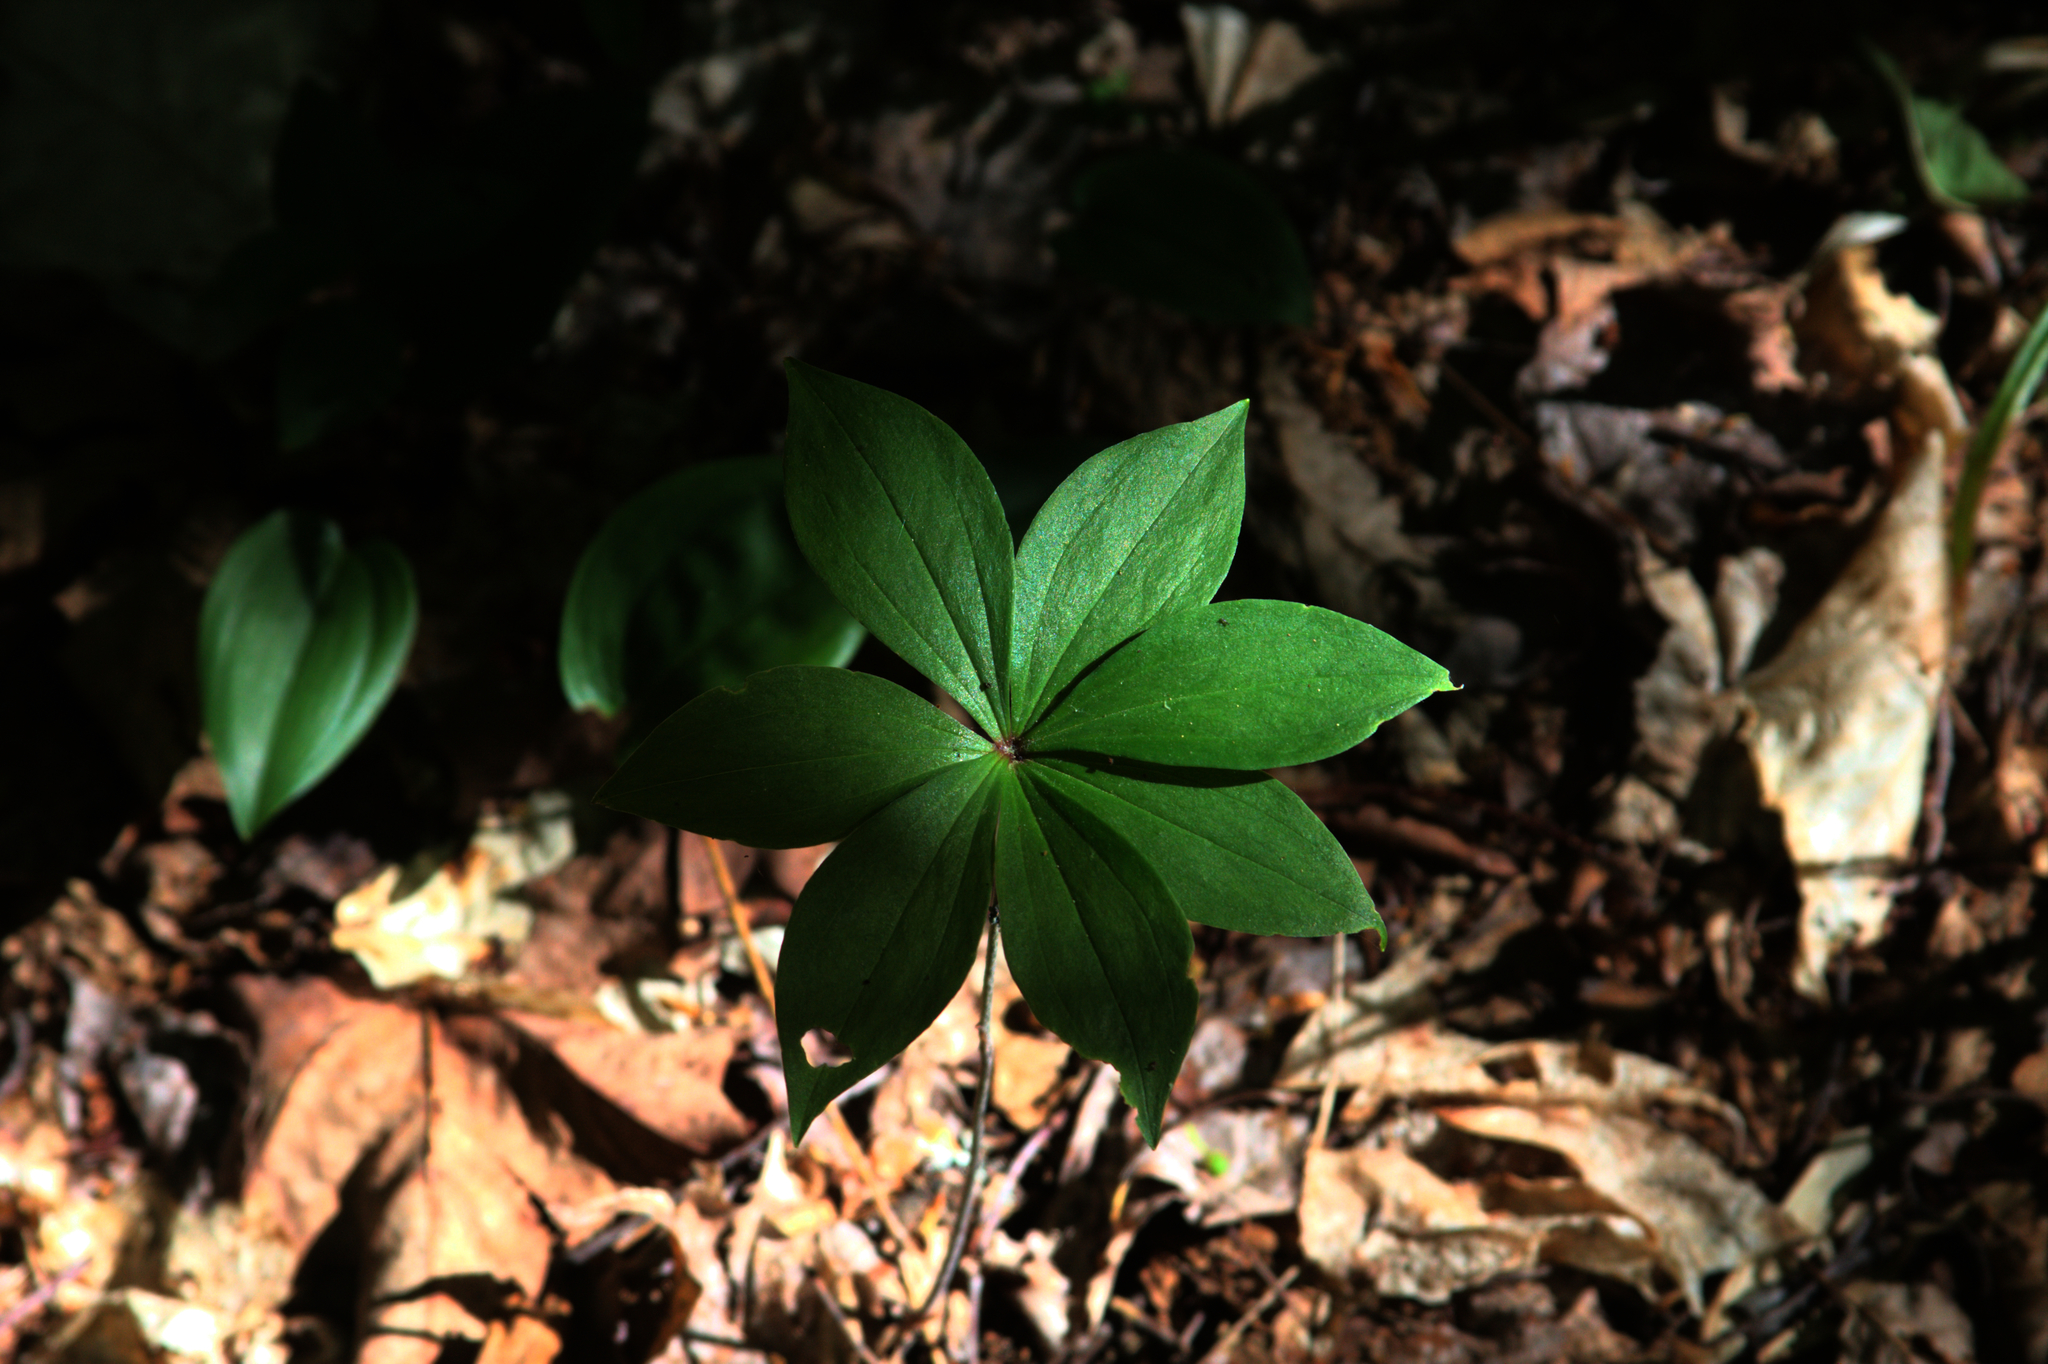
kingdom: Plantae
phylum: Tracheophyta
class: Liliopsida
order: Liliales
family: Liliaceae
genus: Medeola
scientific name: Medeola virginiana
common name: Indian cucumber-root
